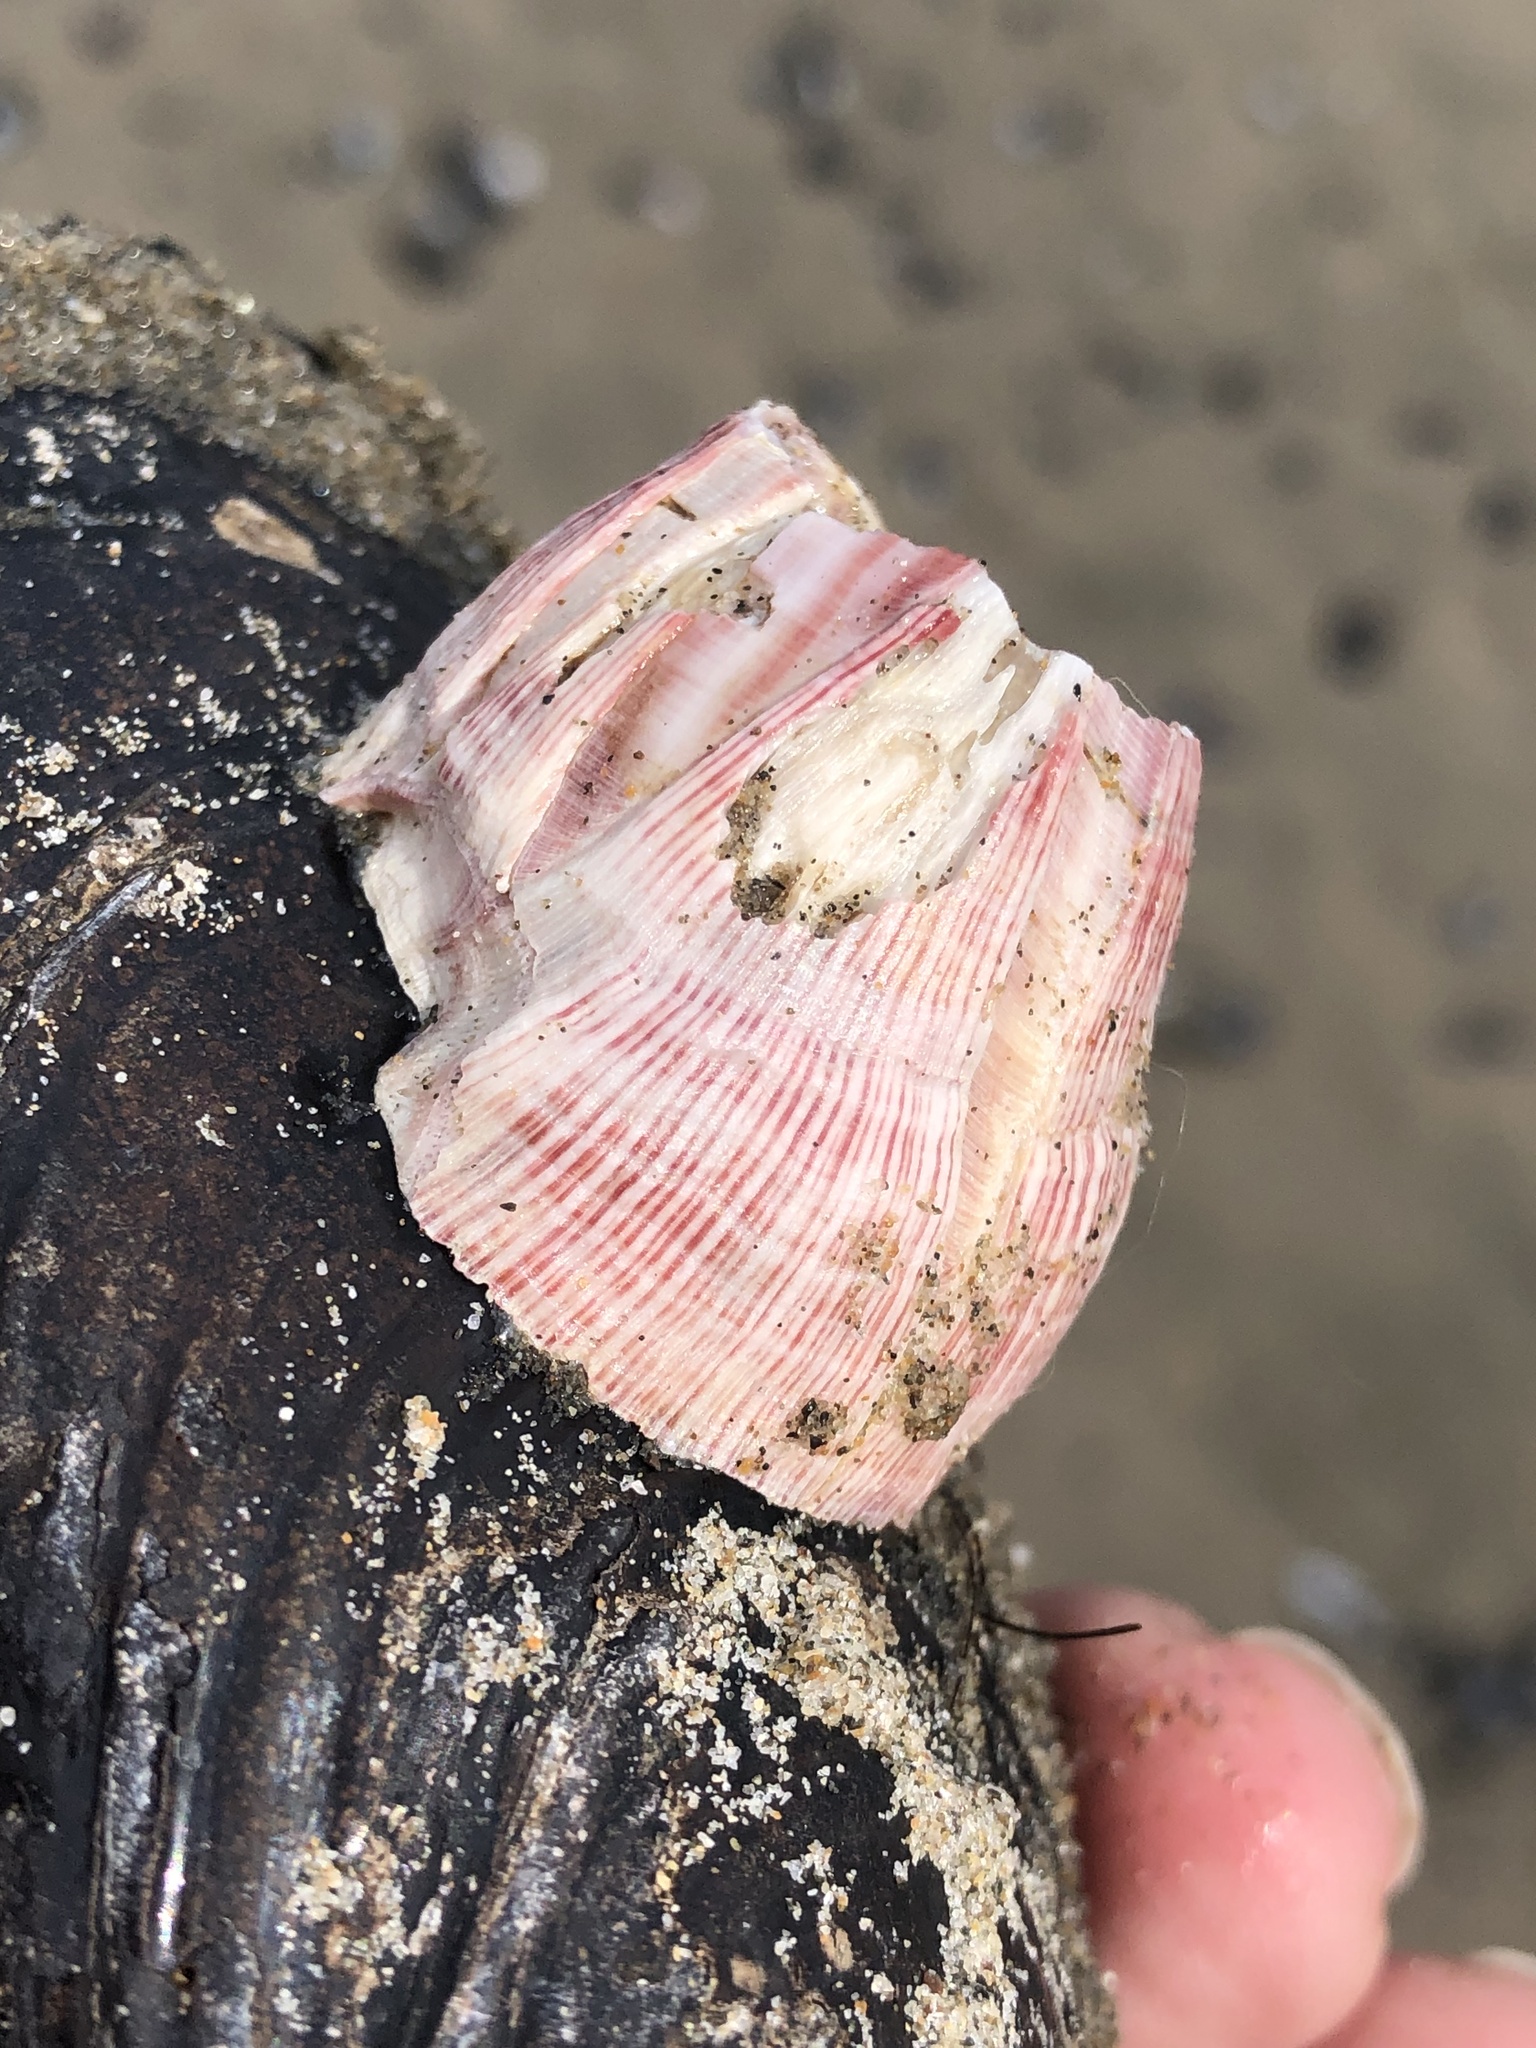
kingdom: Animalia
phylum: Arthropoda
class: Maxillopoda
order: Sessilia
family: Balanidae
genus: Megabalanus
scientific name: Megabalanus californicus
